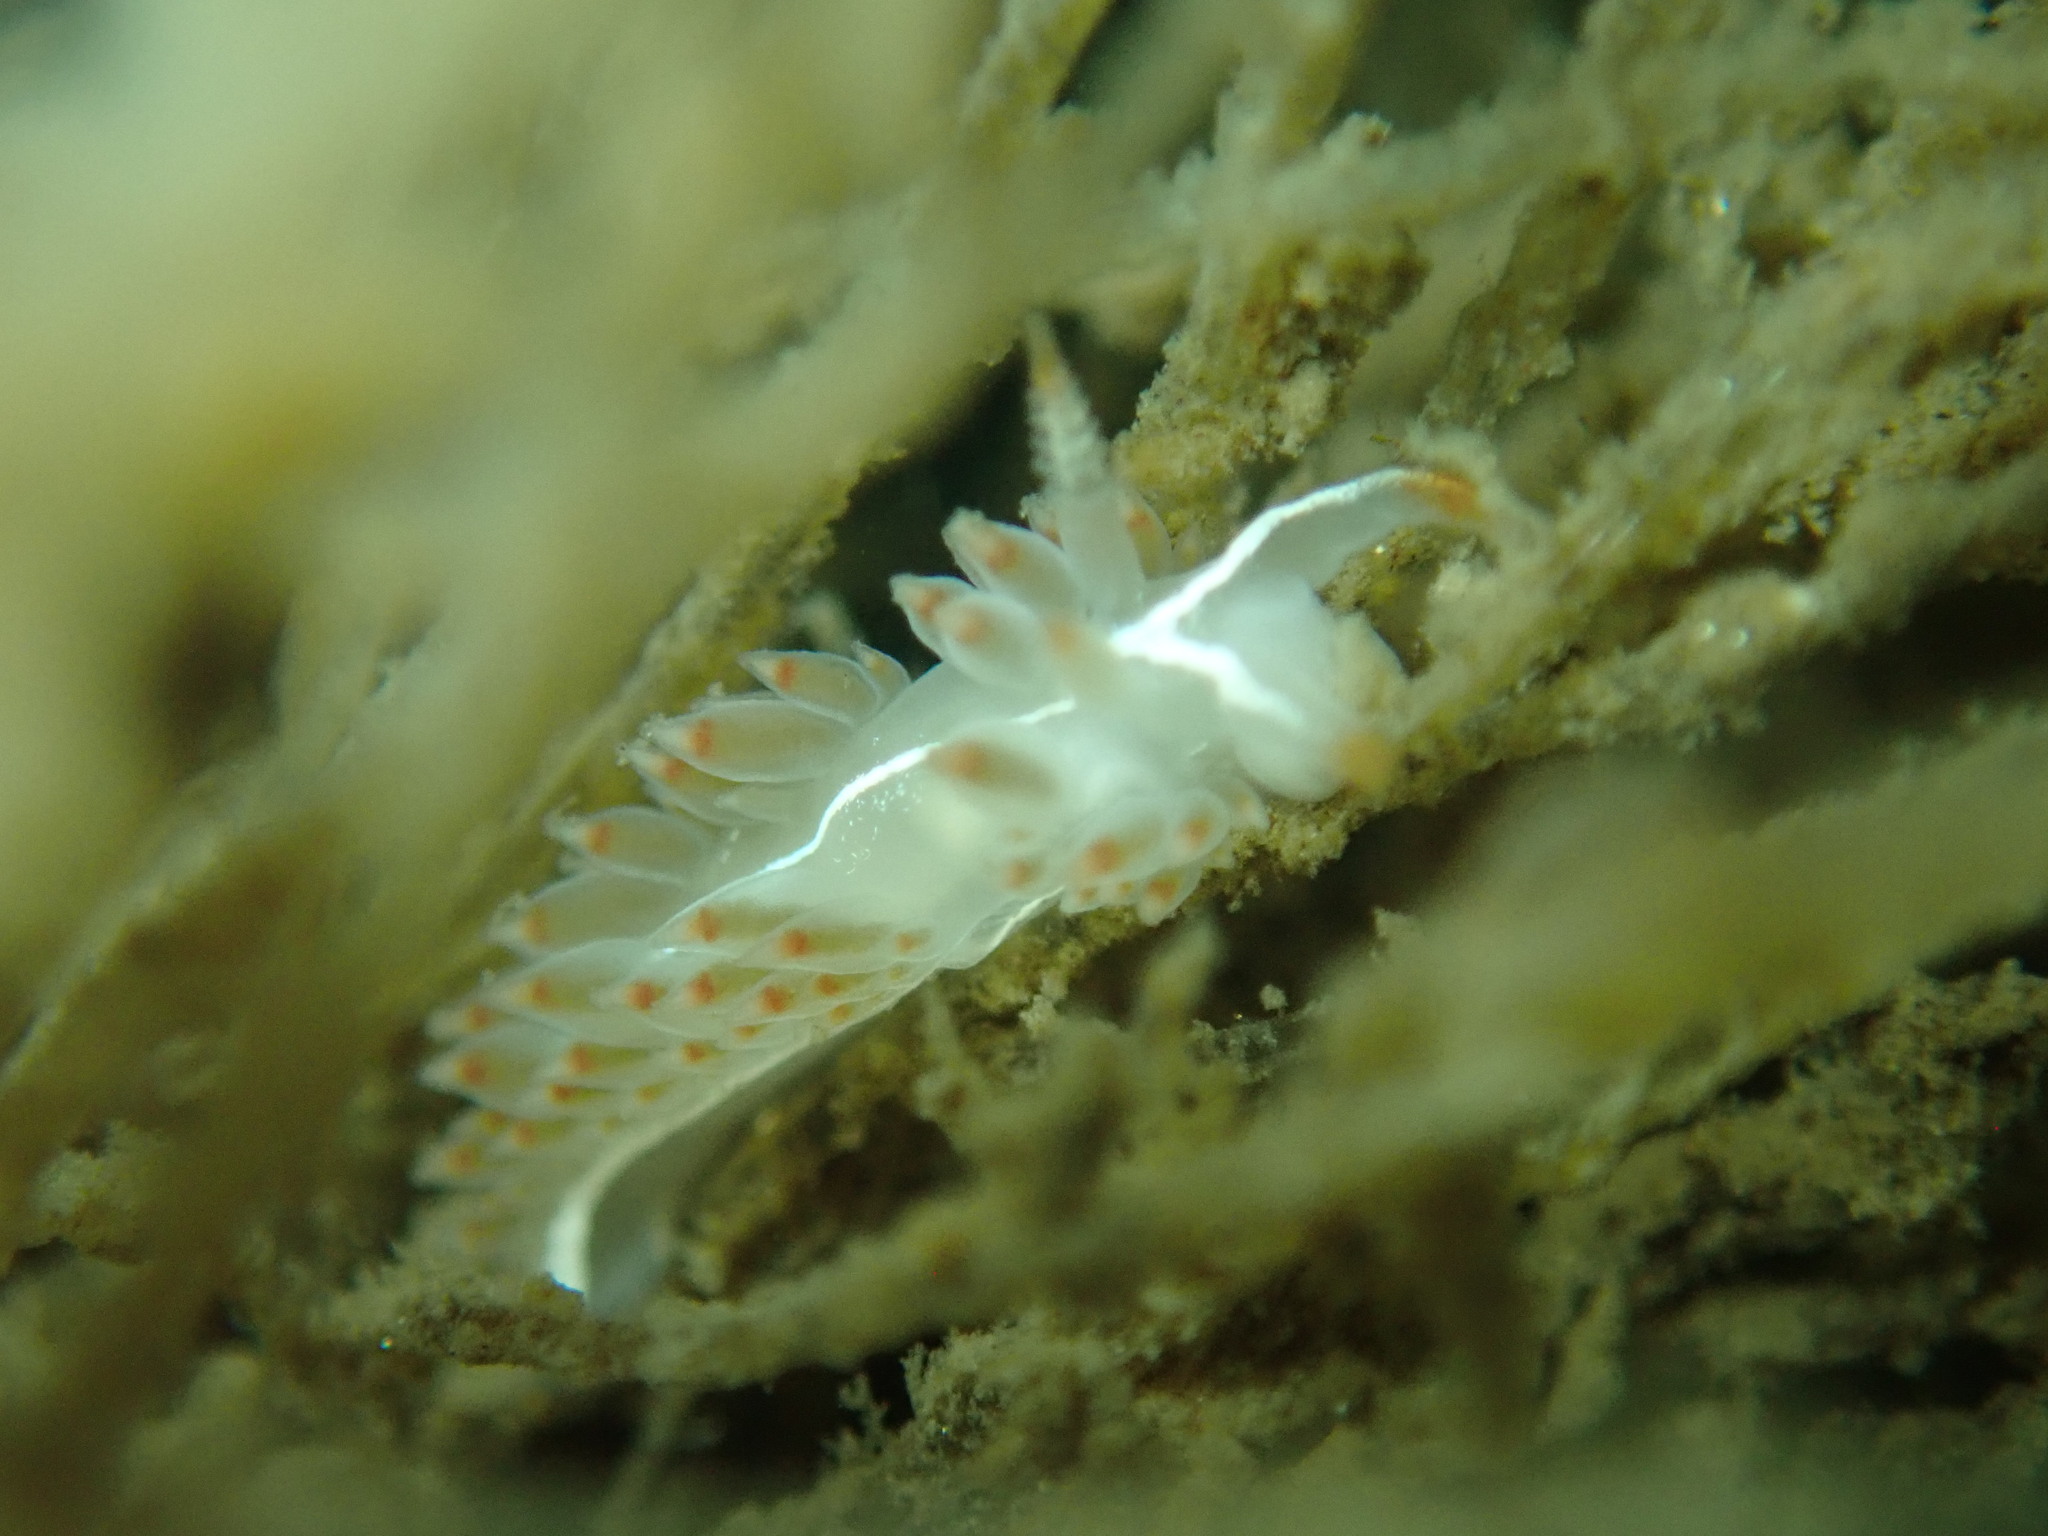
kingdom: Animalia
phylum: Mollusca
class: Gastropoda
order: Nudibranchia
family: Coryphellidae
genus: Coryphella
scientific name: Coryphella trilineata
